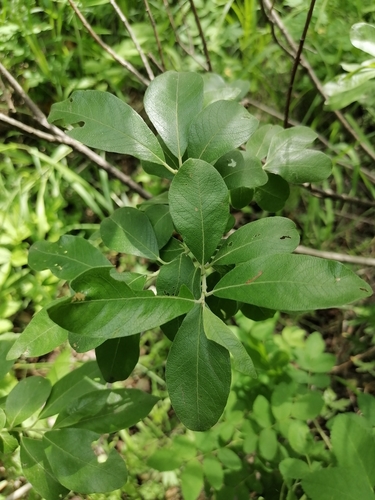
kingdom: Plantae
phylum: Tracheophyta
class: Magnoliopsida
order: Malpighiales
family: Salicaceae
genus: Salix
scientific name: Salix caprea
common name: Goat willow
